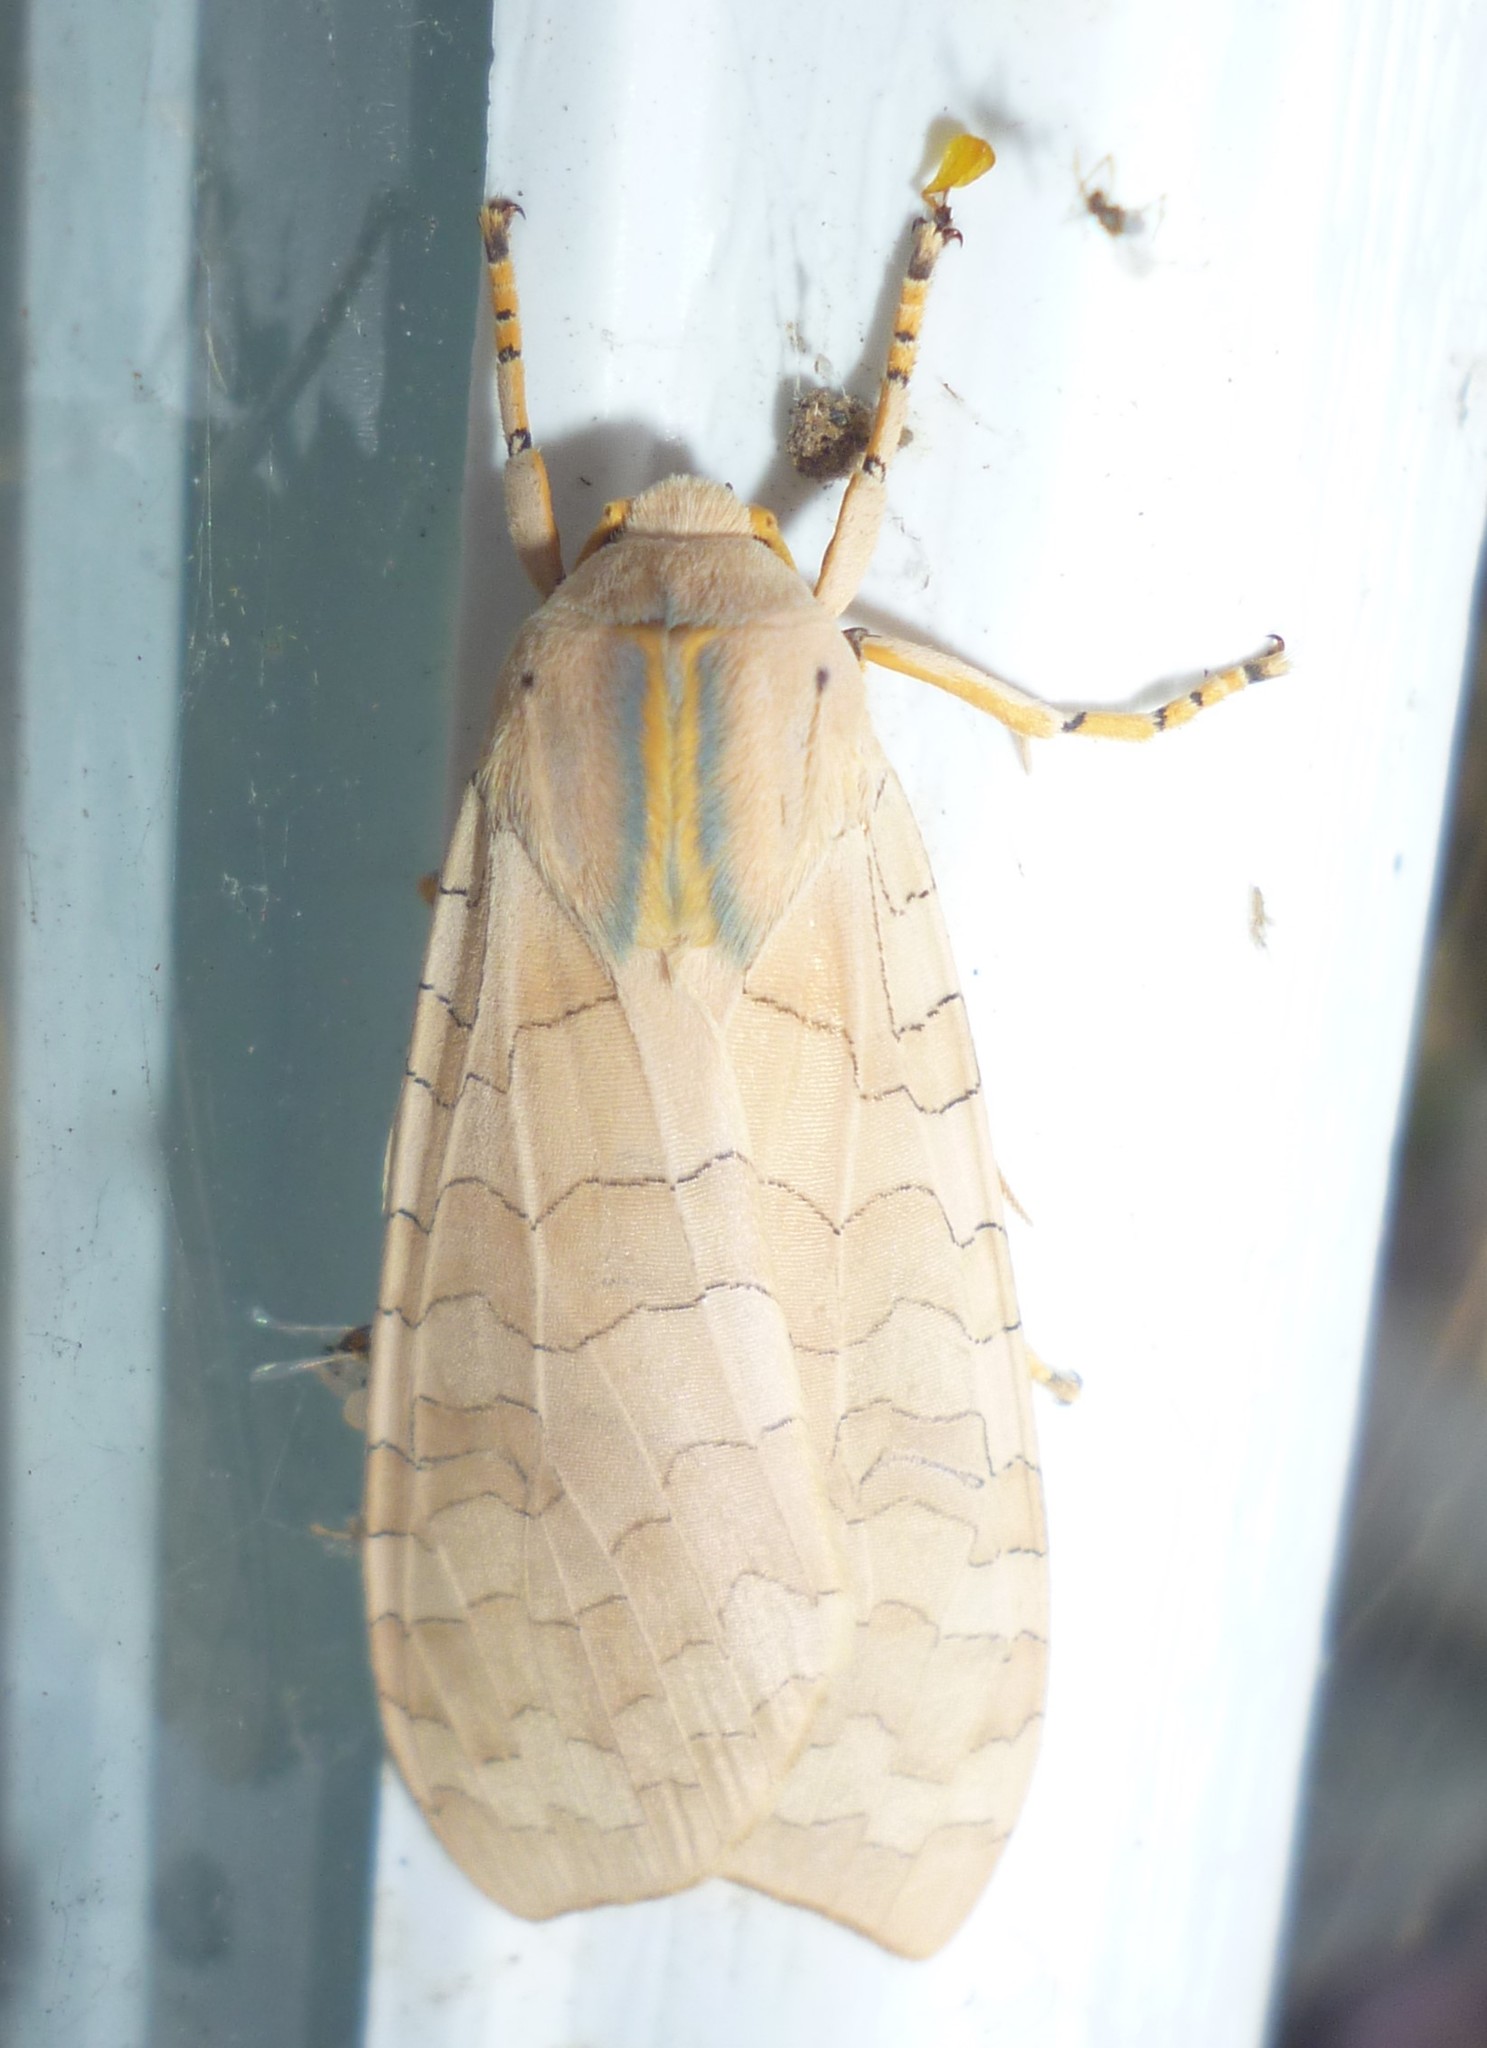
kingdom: Animalia
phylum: Arthropoda
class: Insecta
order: Lepidoptera
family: Erebidae
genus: Halysidota
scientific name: Halysidota
